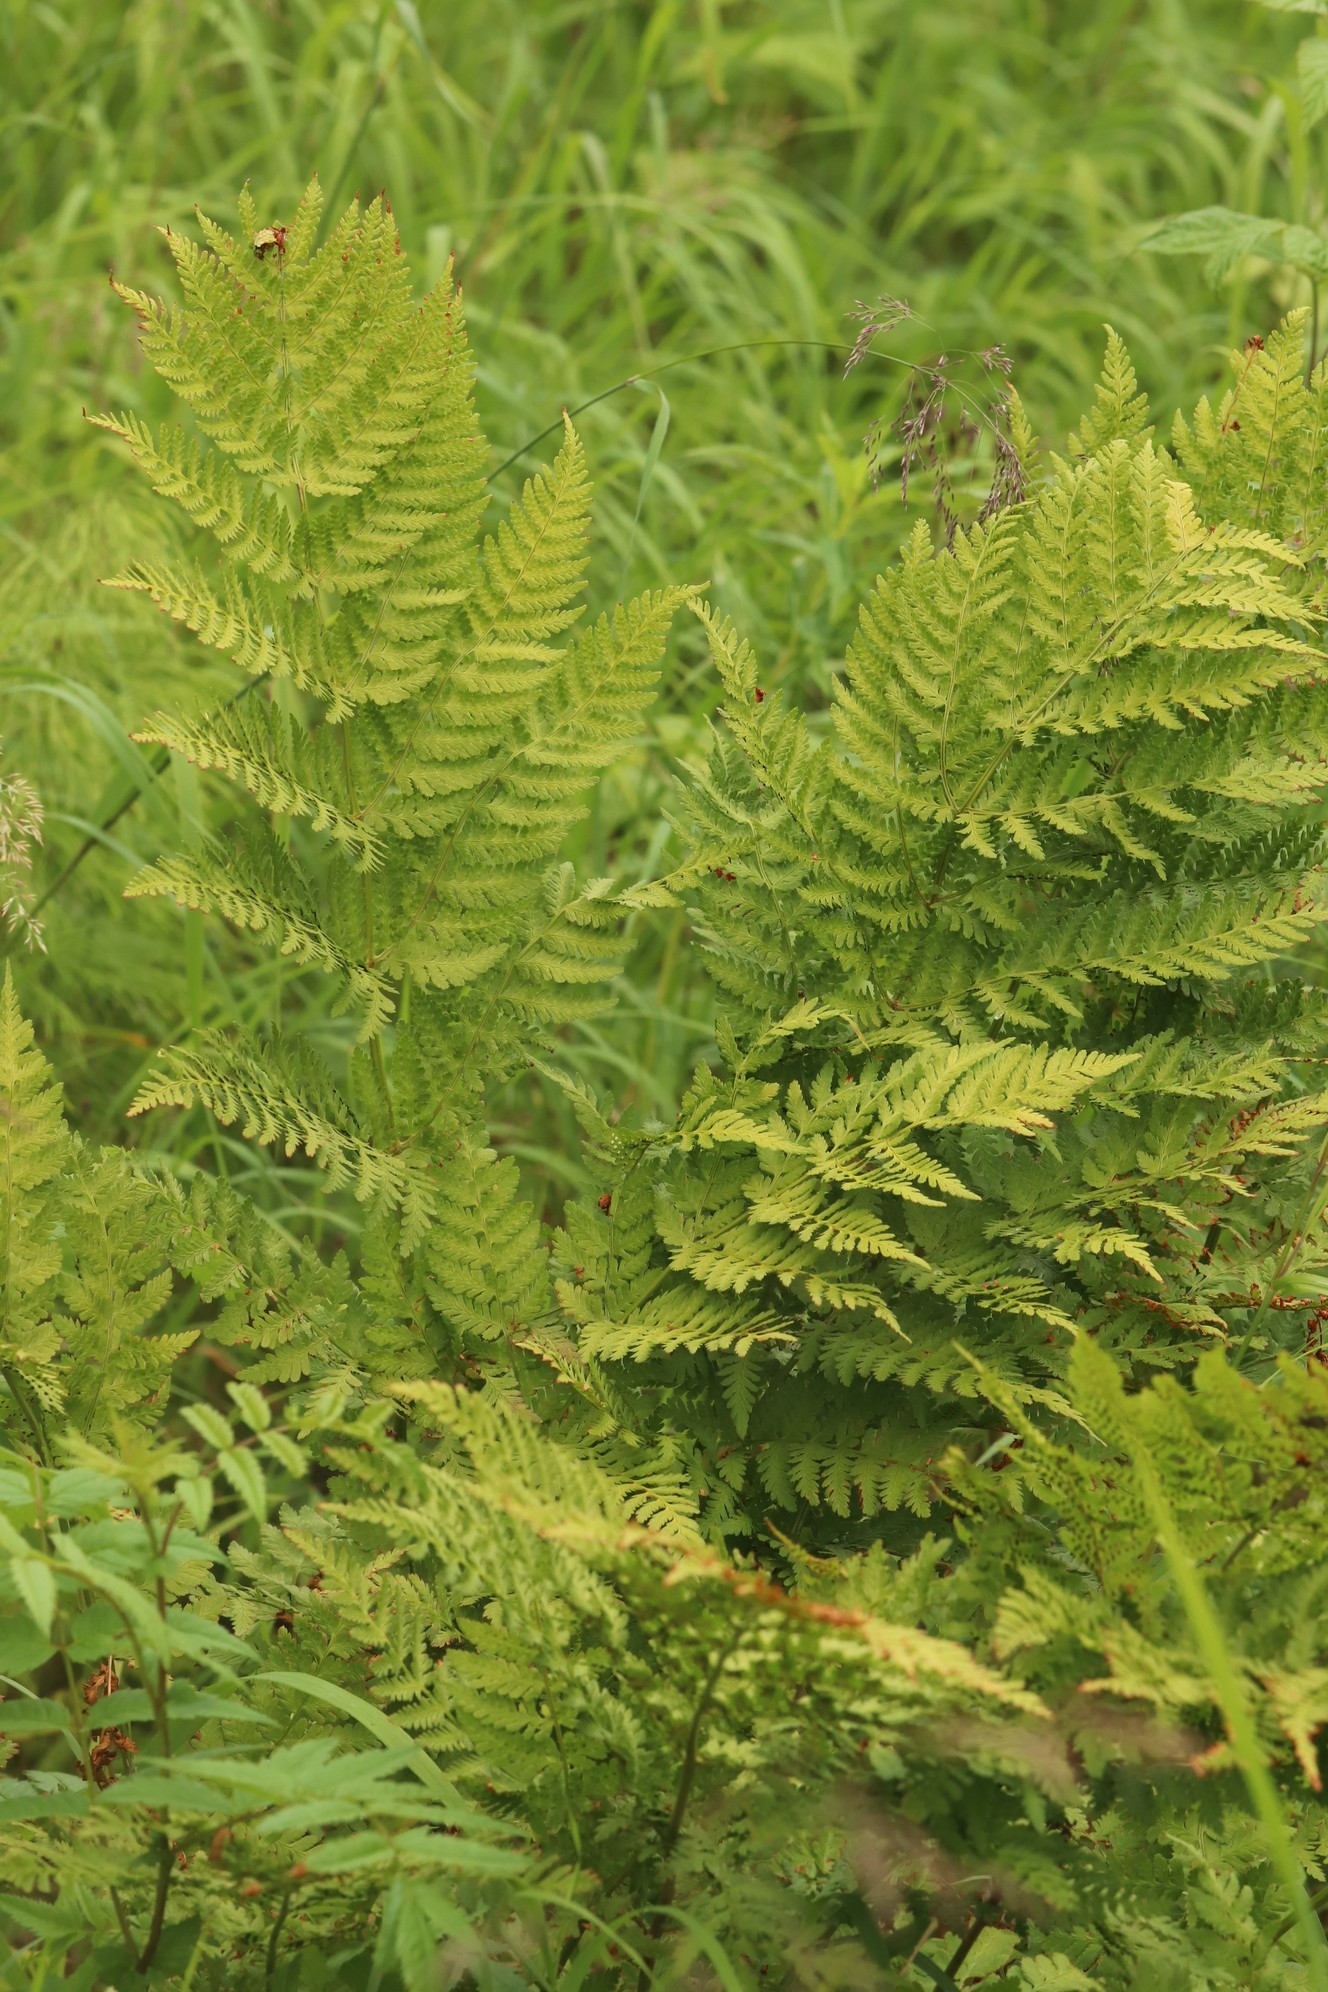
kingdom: Plantae
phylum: Tracheophyta
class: Polypodiopsida
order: Polypodiales
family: Dryopteridaceae
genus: Dryopteris
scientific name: Dryopteris expansa
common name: Northern buckler fern
